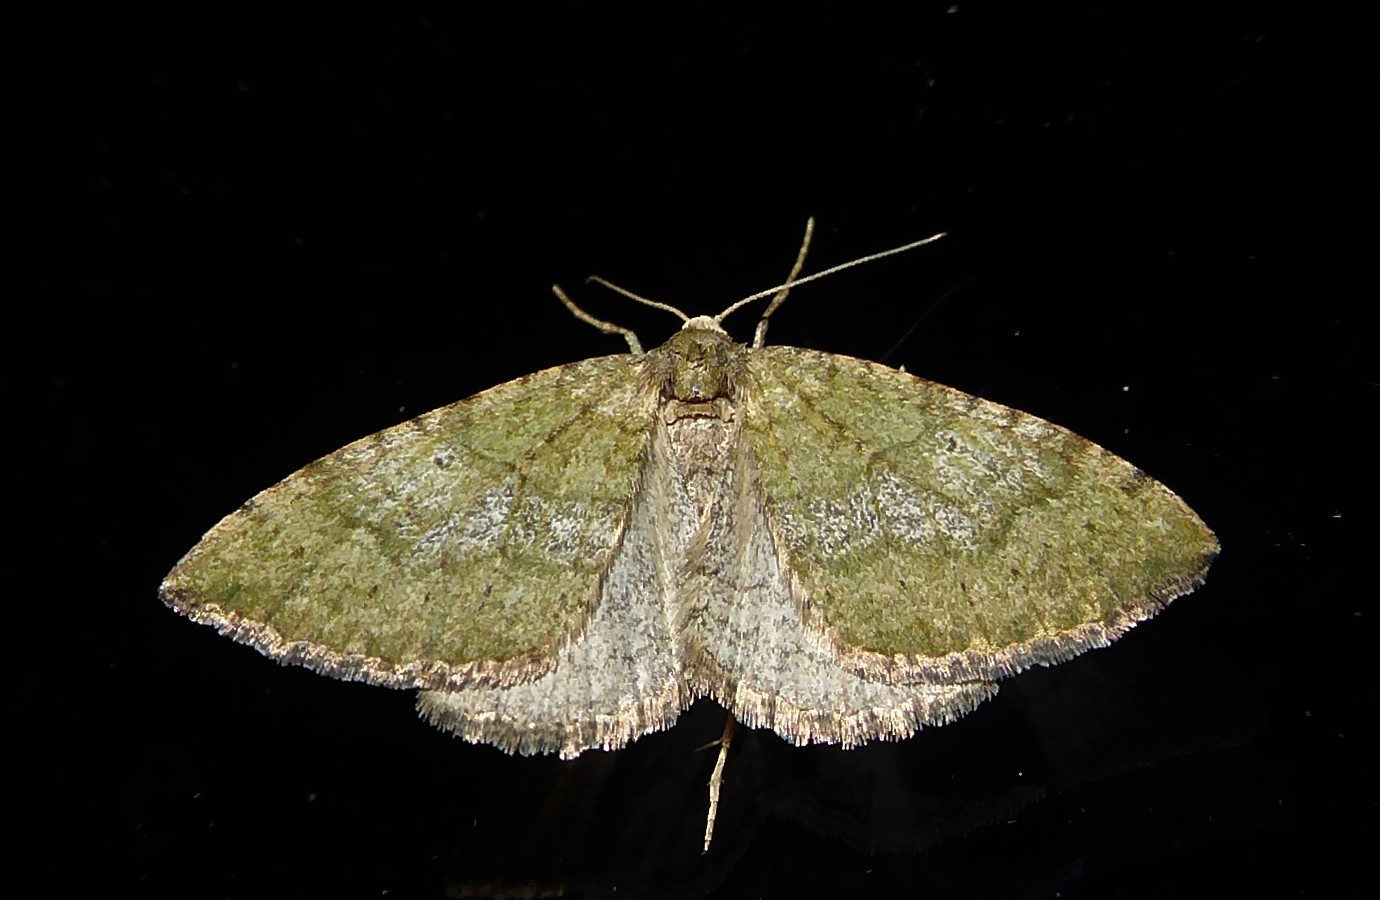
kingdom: Animalia
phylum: Arthropoda
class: Insecta
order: Lepidoptera
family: Geometridae
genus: Epyaxa
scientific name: Epyaxa rosearia
